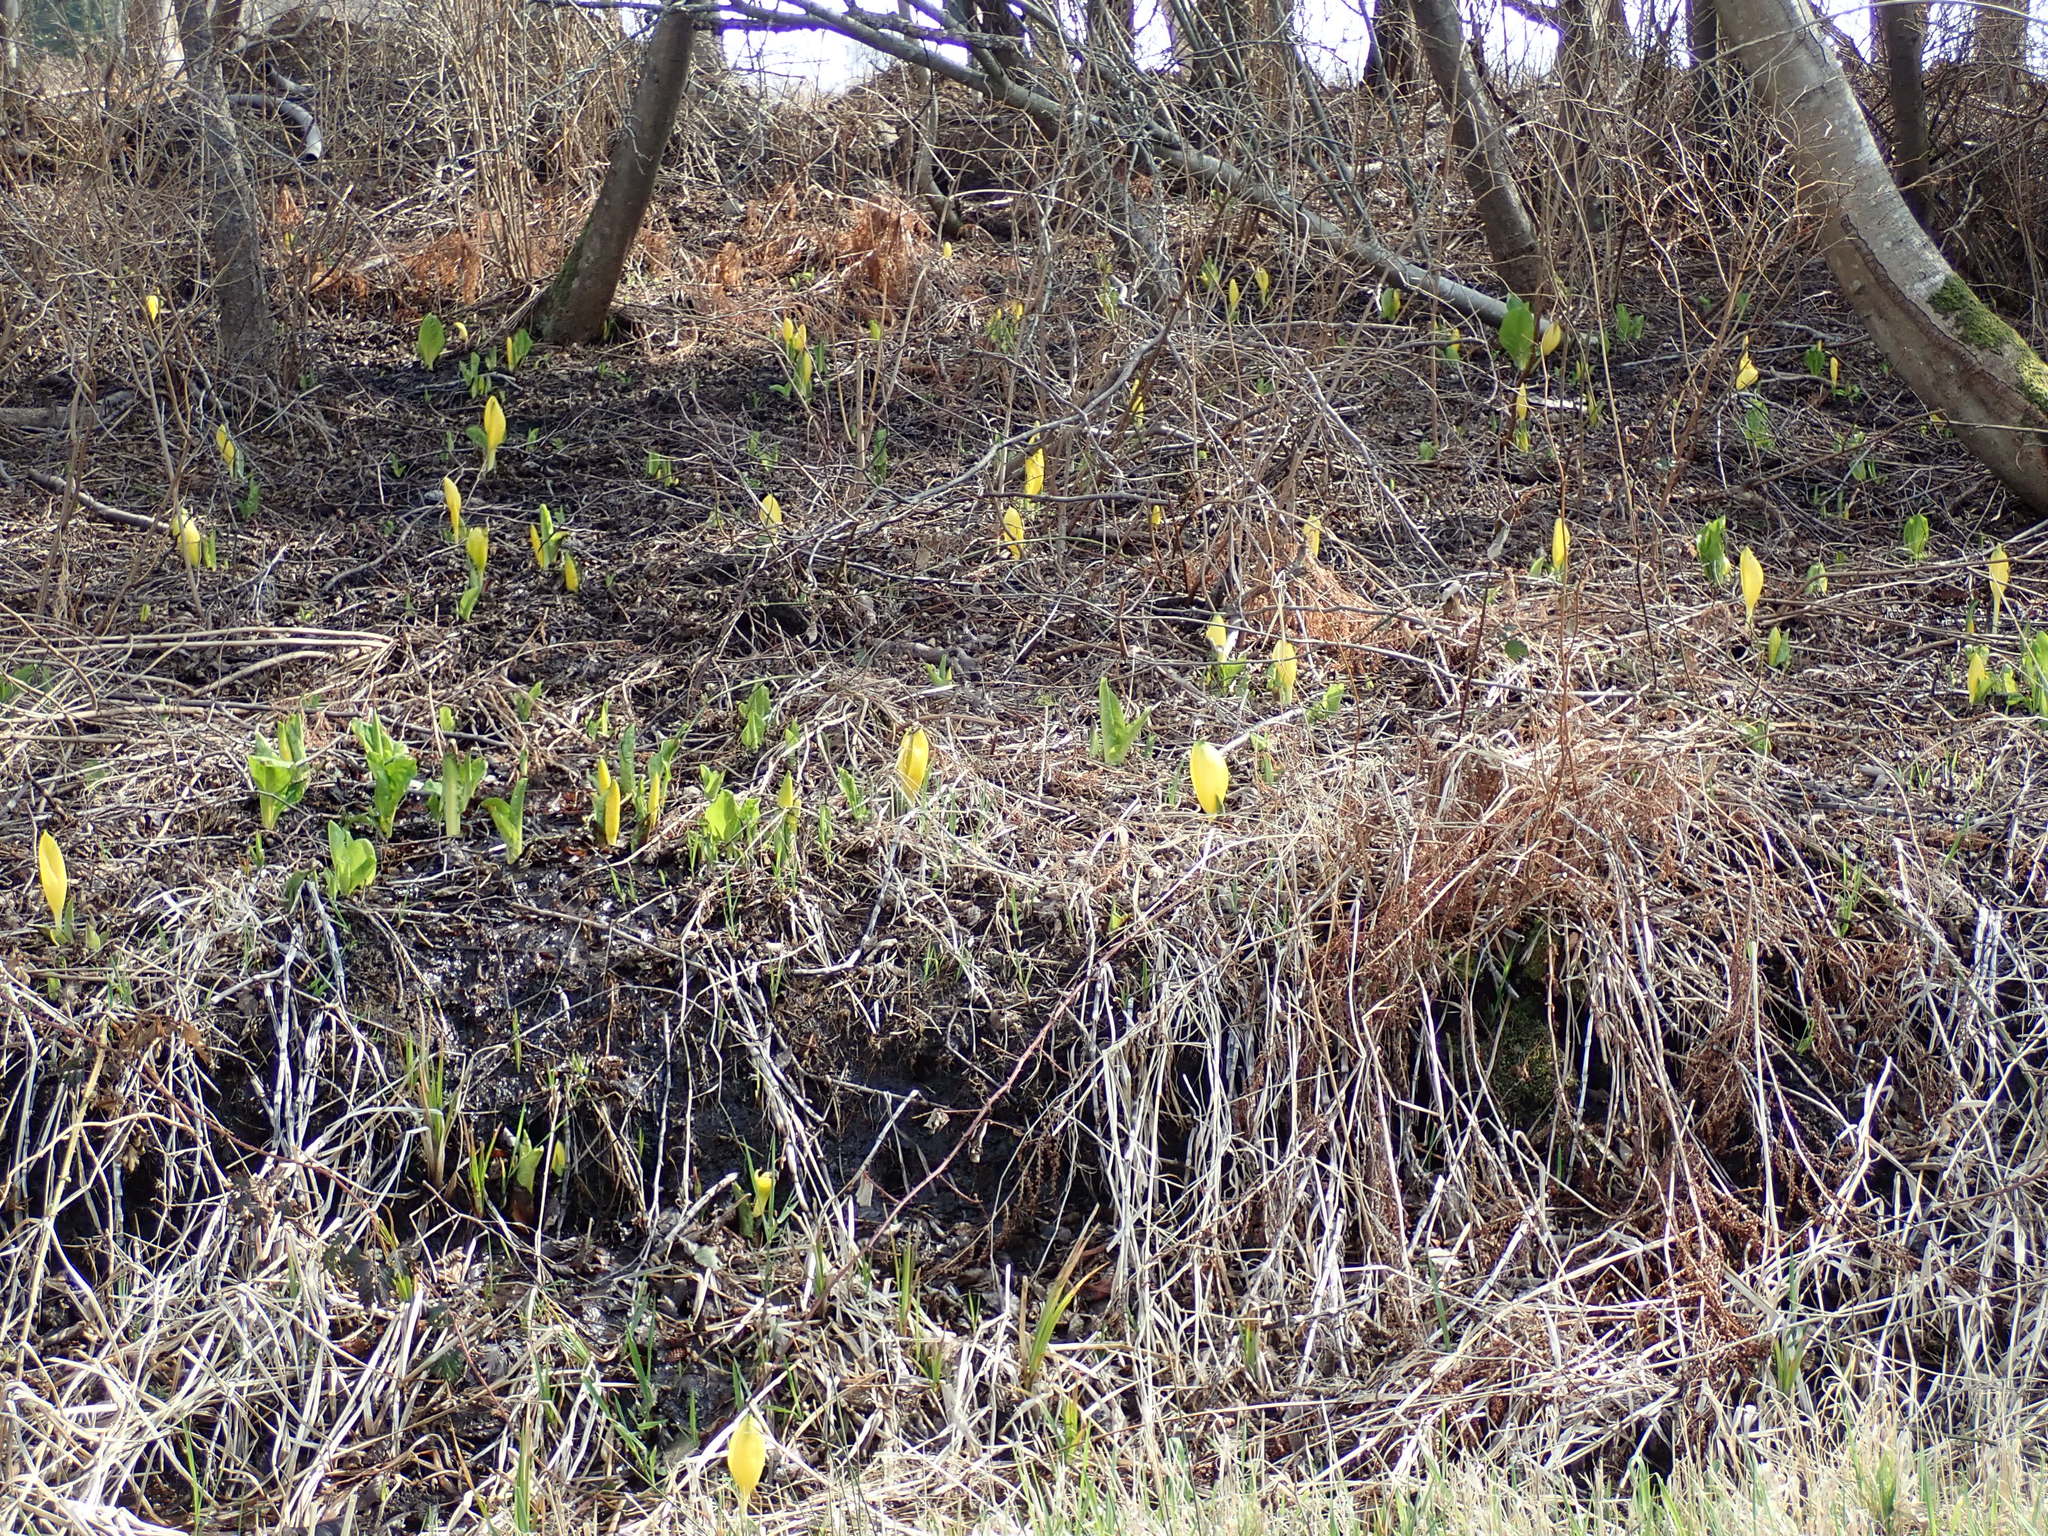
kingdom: Plantae
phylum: Tracheophyta
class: Liliopsida
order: Alismatales
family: Araceae
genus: Lysichiton
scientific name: Lysichiton americanus
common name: American skunk cabbage
